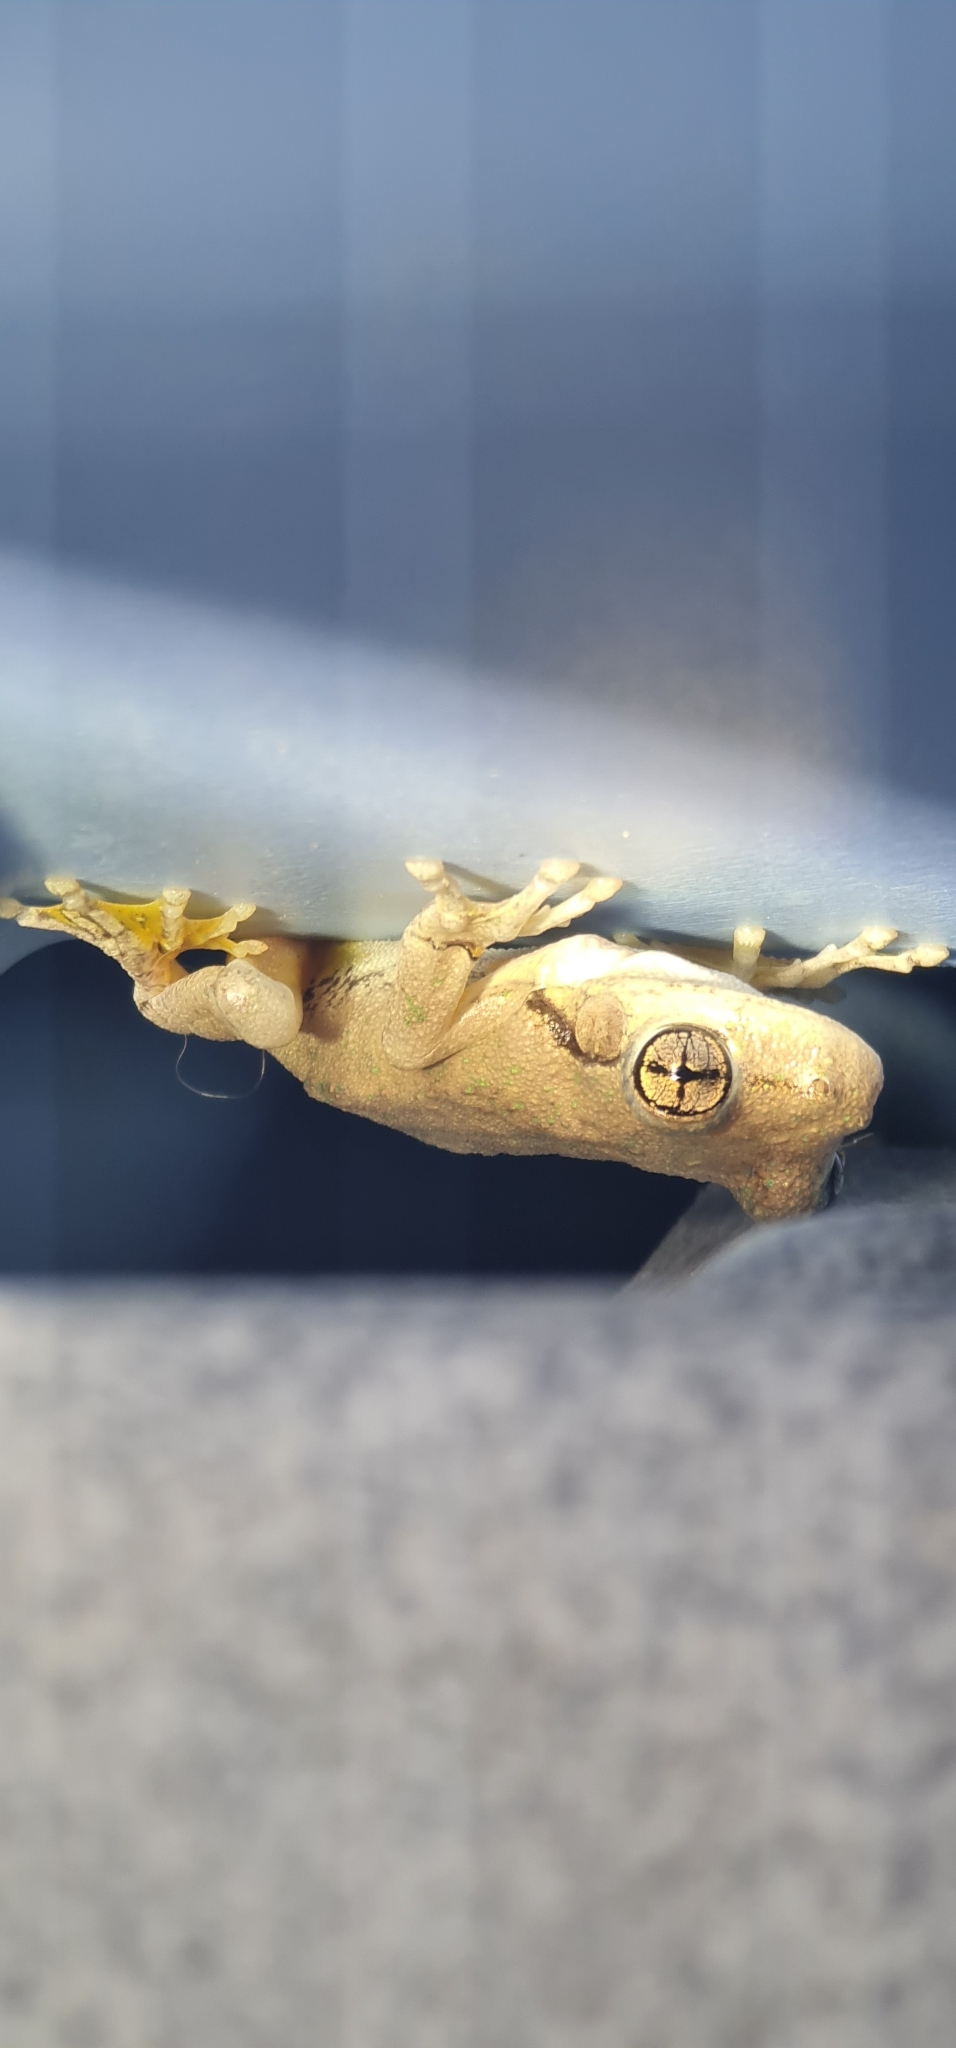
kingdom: Animalia
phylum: Chordata
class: Amphibia
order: Anura
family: Pelodryadidae
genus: Litoria
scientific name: Litoria peronii
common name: Emerald spotted treefrog
